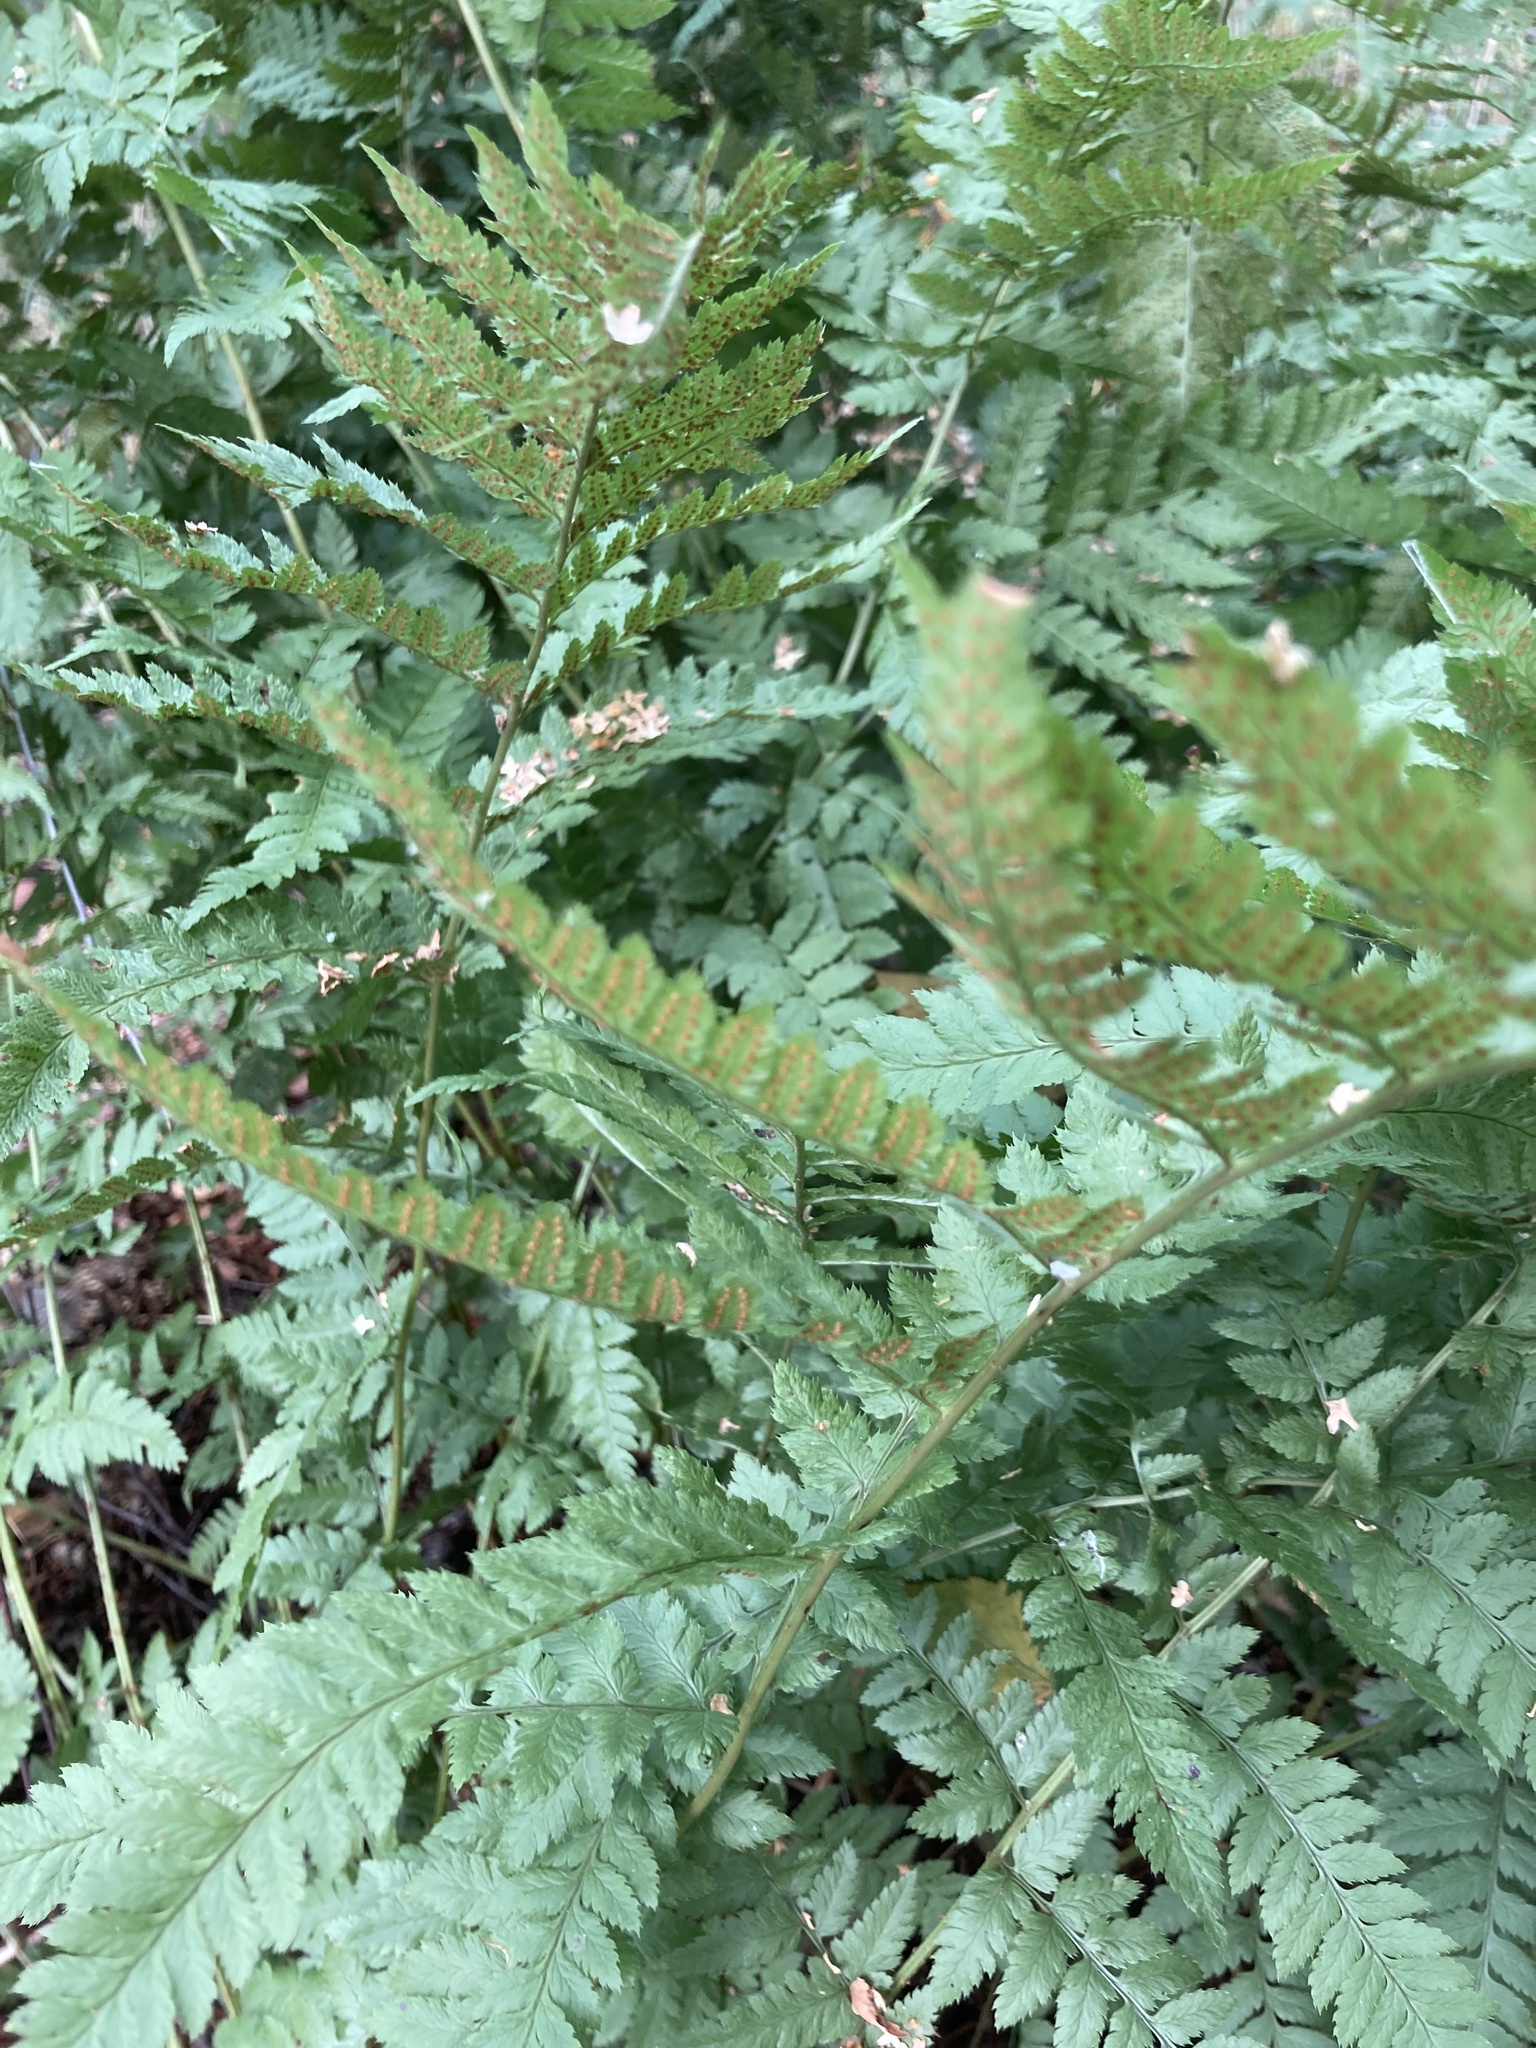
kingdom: Plantae
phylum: Tracheophyta
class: Polypodiopsida
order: Polypodiales
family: Dryopteridaceae
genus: Dryopteris
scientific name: Dryopteris carthusiana
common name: Narrow buckler-fern
